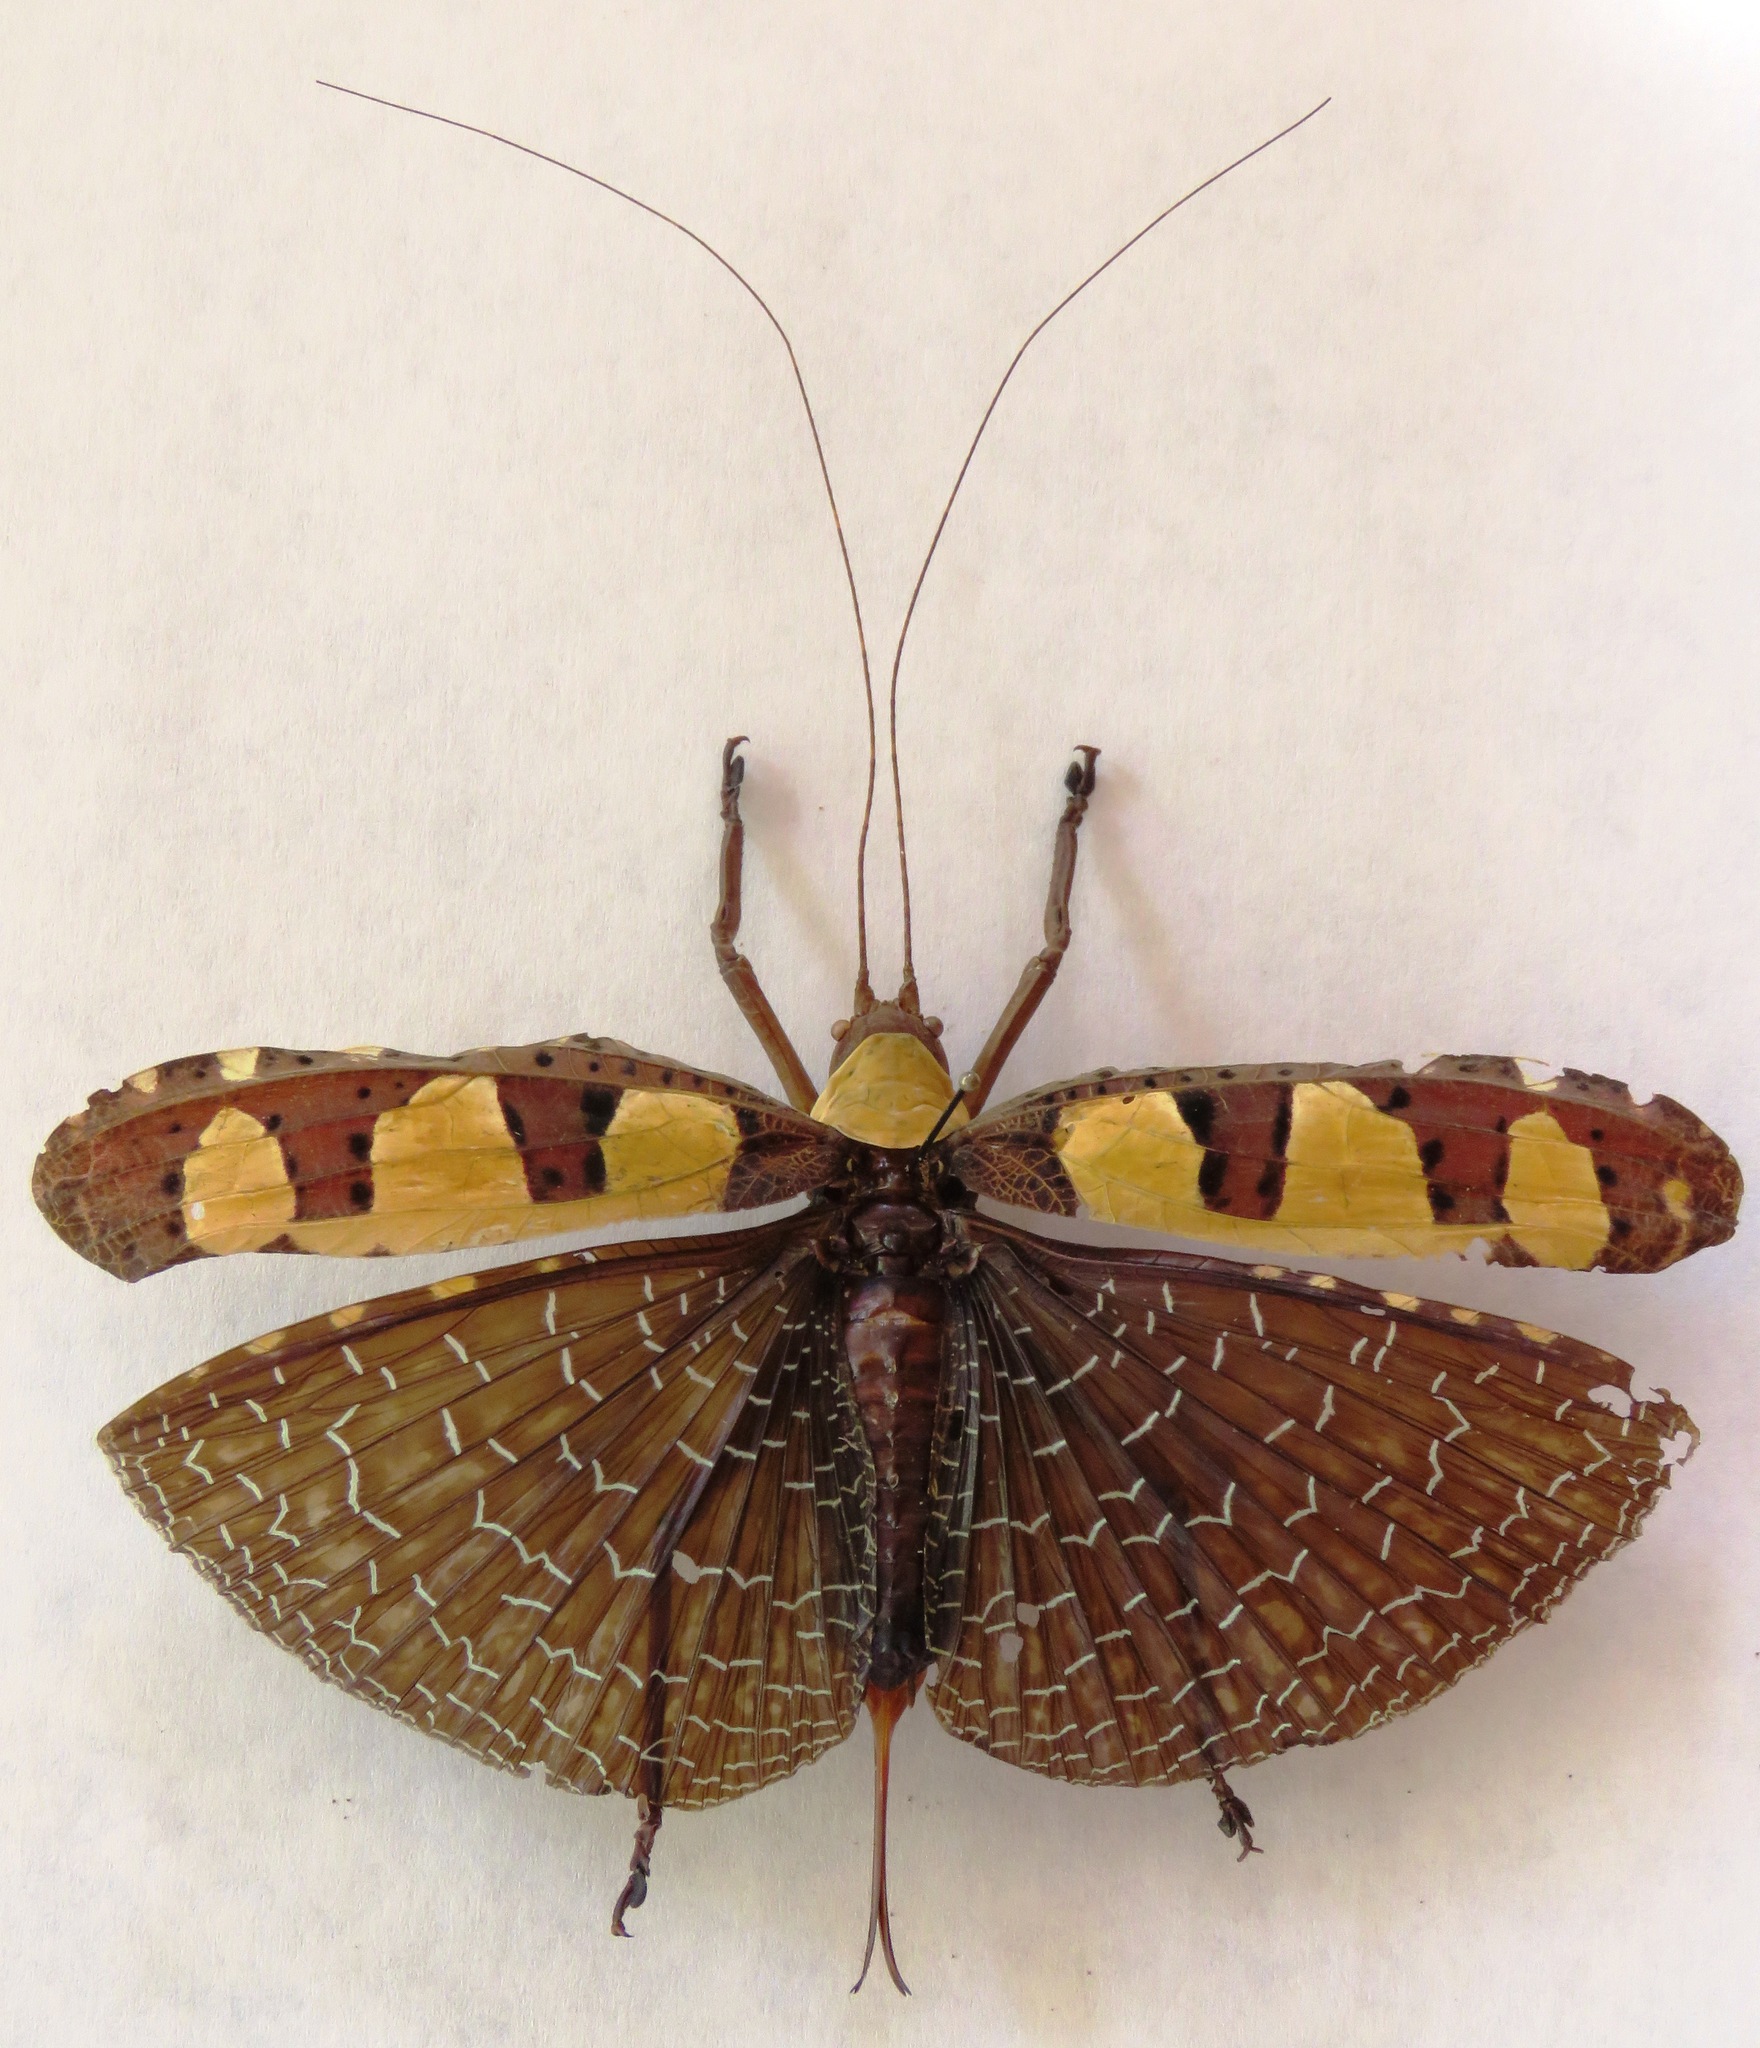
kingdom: Animalia
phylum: Arthropoda
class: Insecta
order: Orthoptera
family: Tettigoniidae
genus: Sanaa
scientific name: Sanaa intermedia
